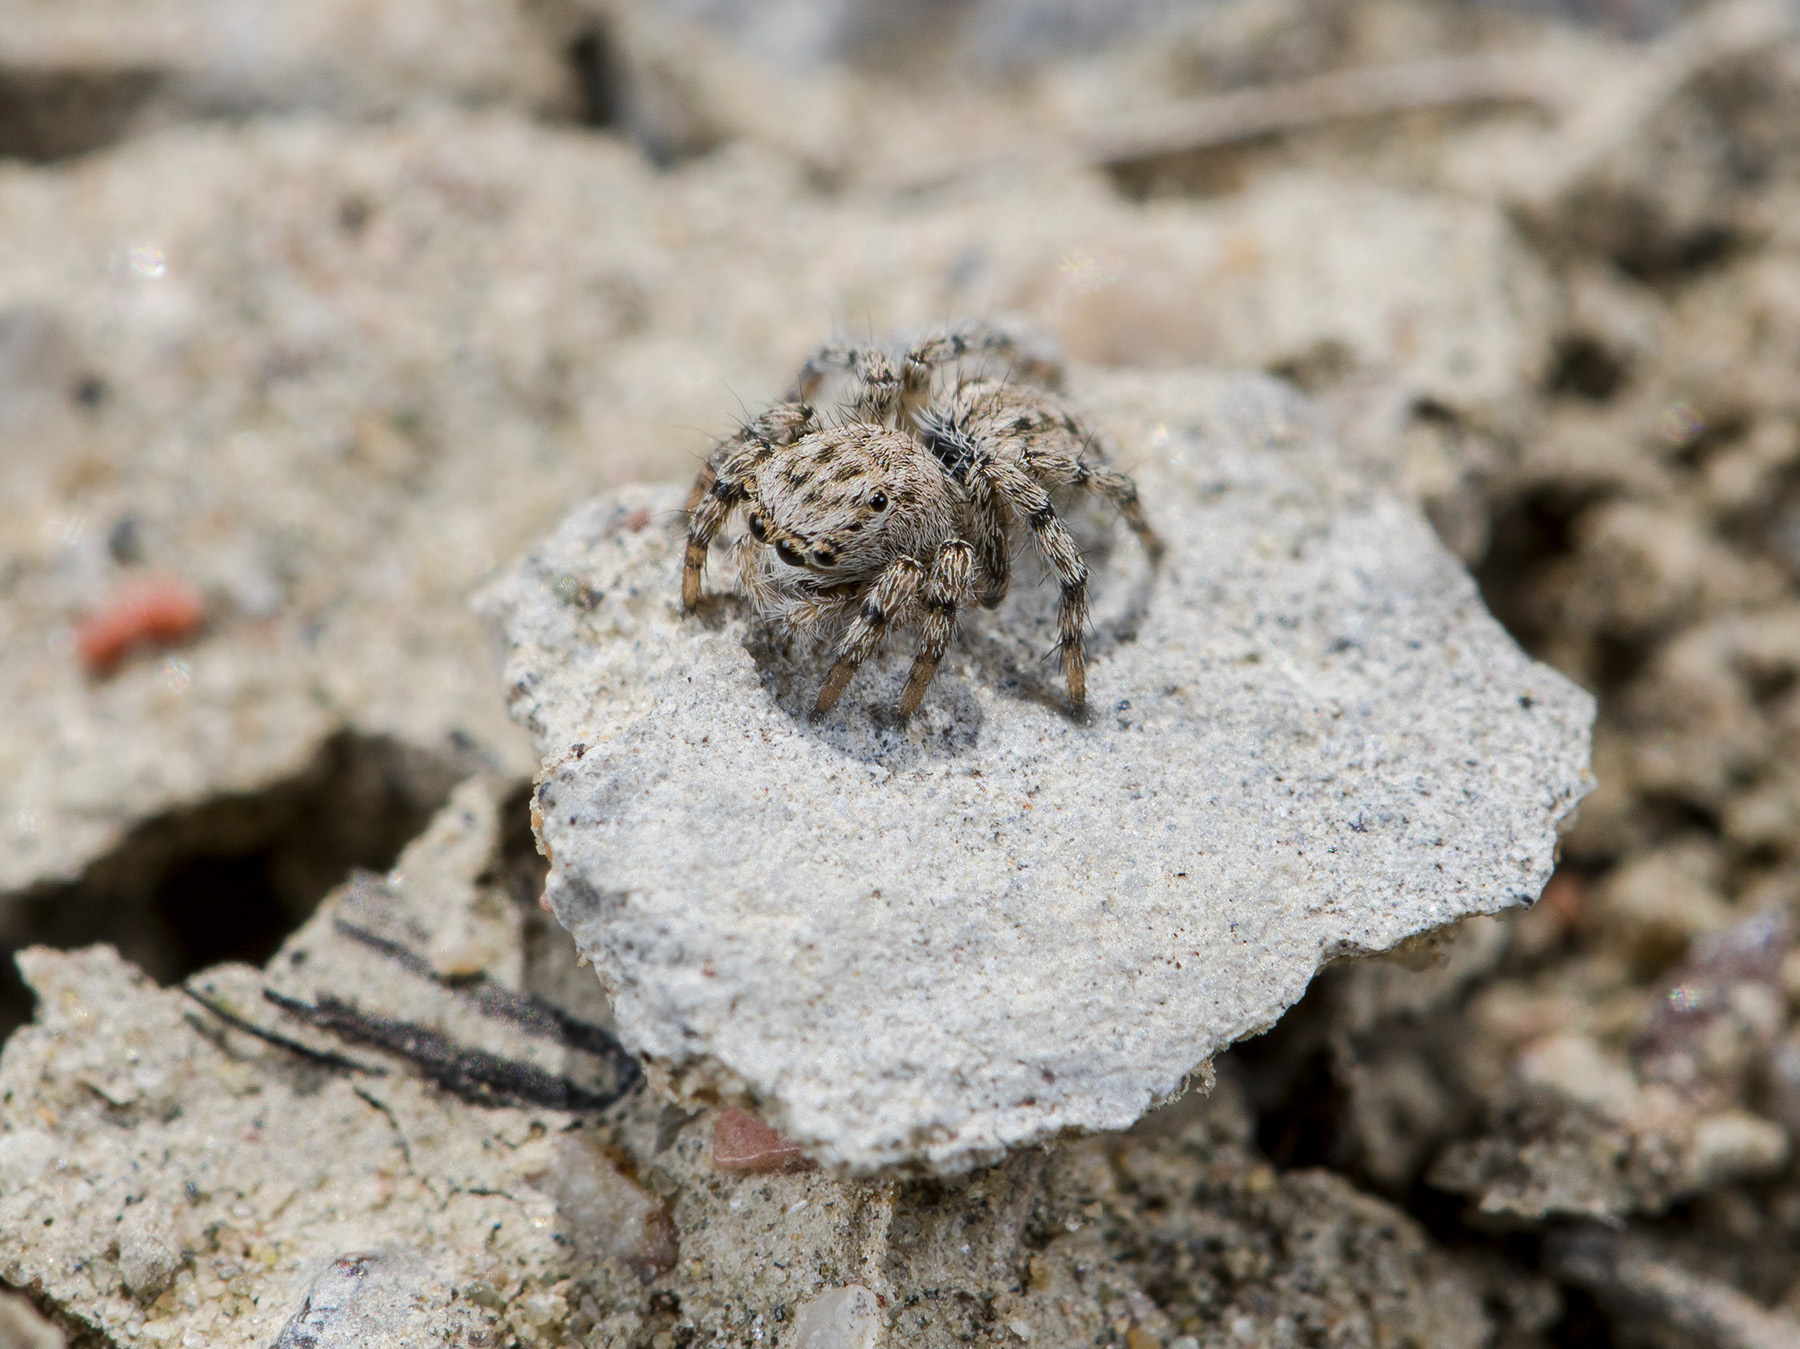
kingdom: Animalia
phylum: Arthropoda
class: Arachnida
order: Araneae
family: Salticidae
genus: Aelurillus
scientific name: Aelurillus dubatolovi
